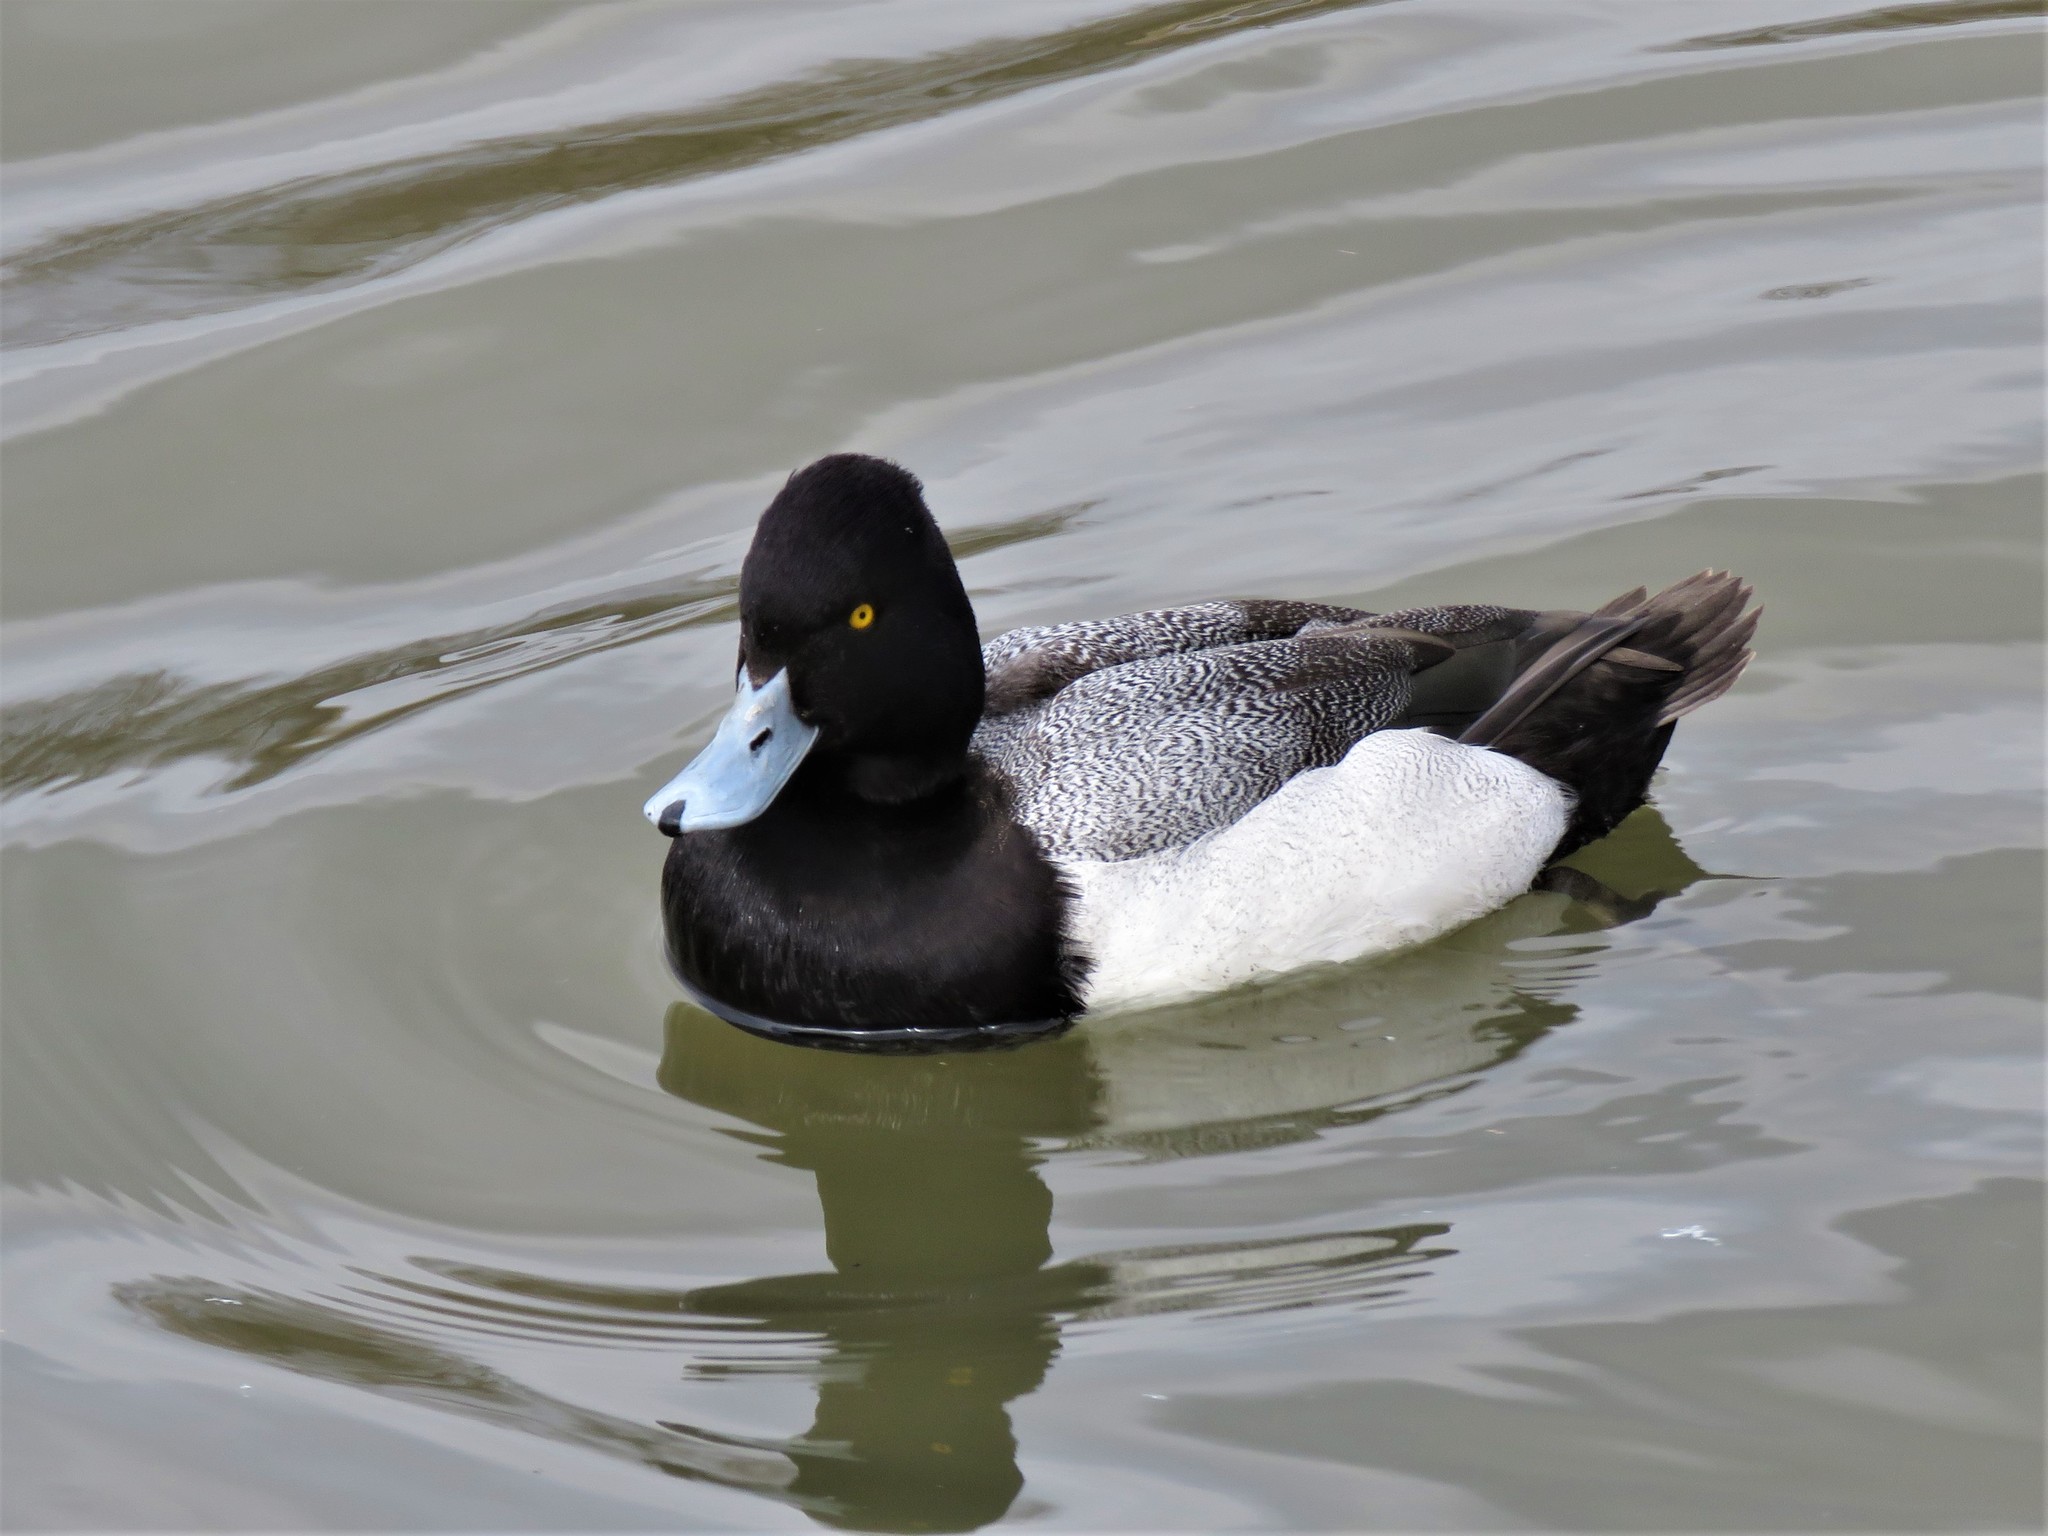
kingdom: Animalia
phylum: Chordata
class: Aves
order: Anseriformes
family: Anatidae
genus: Aythya
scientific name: Aythya affinis
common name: Lesser scaup
